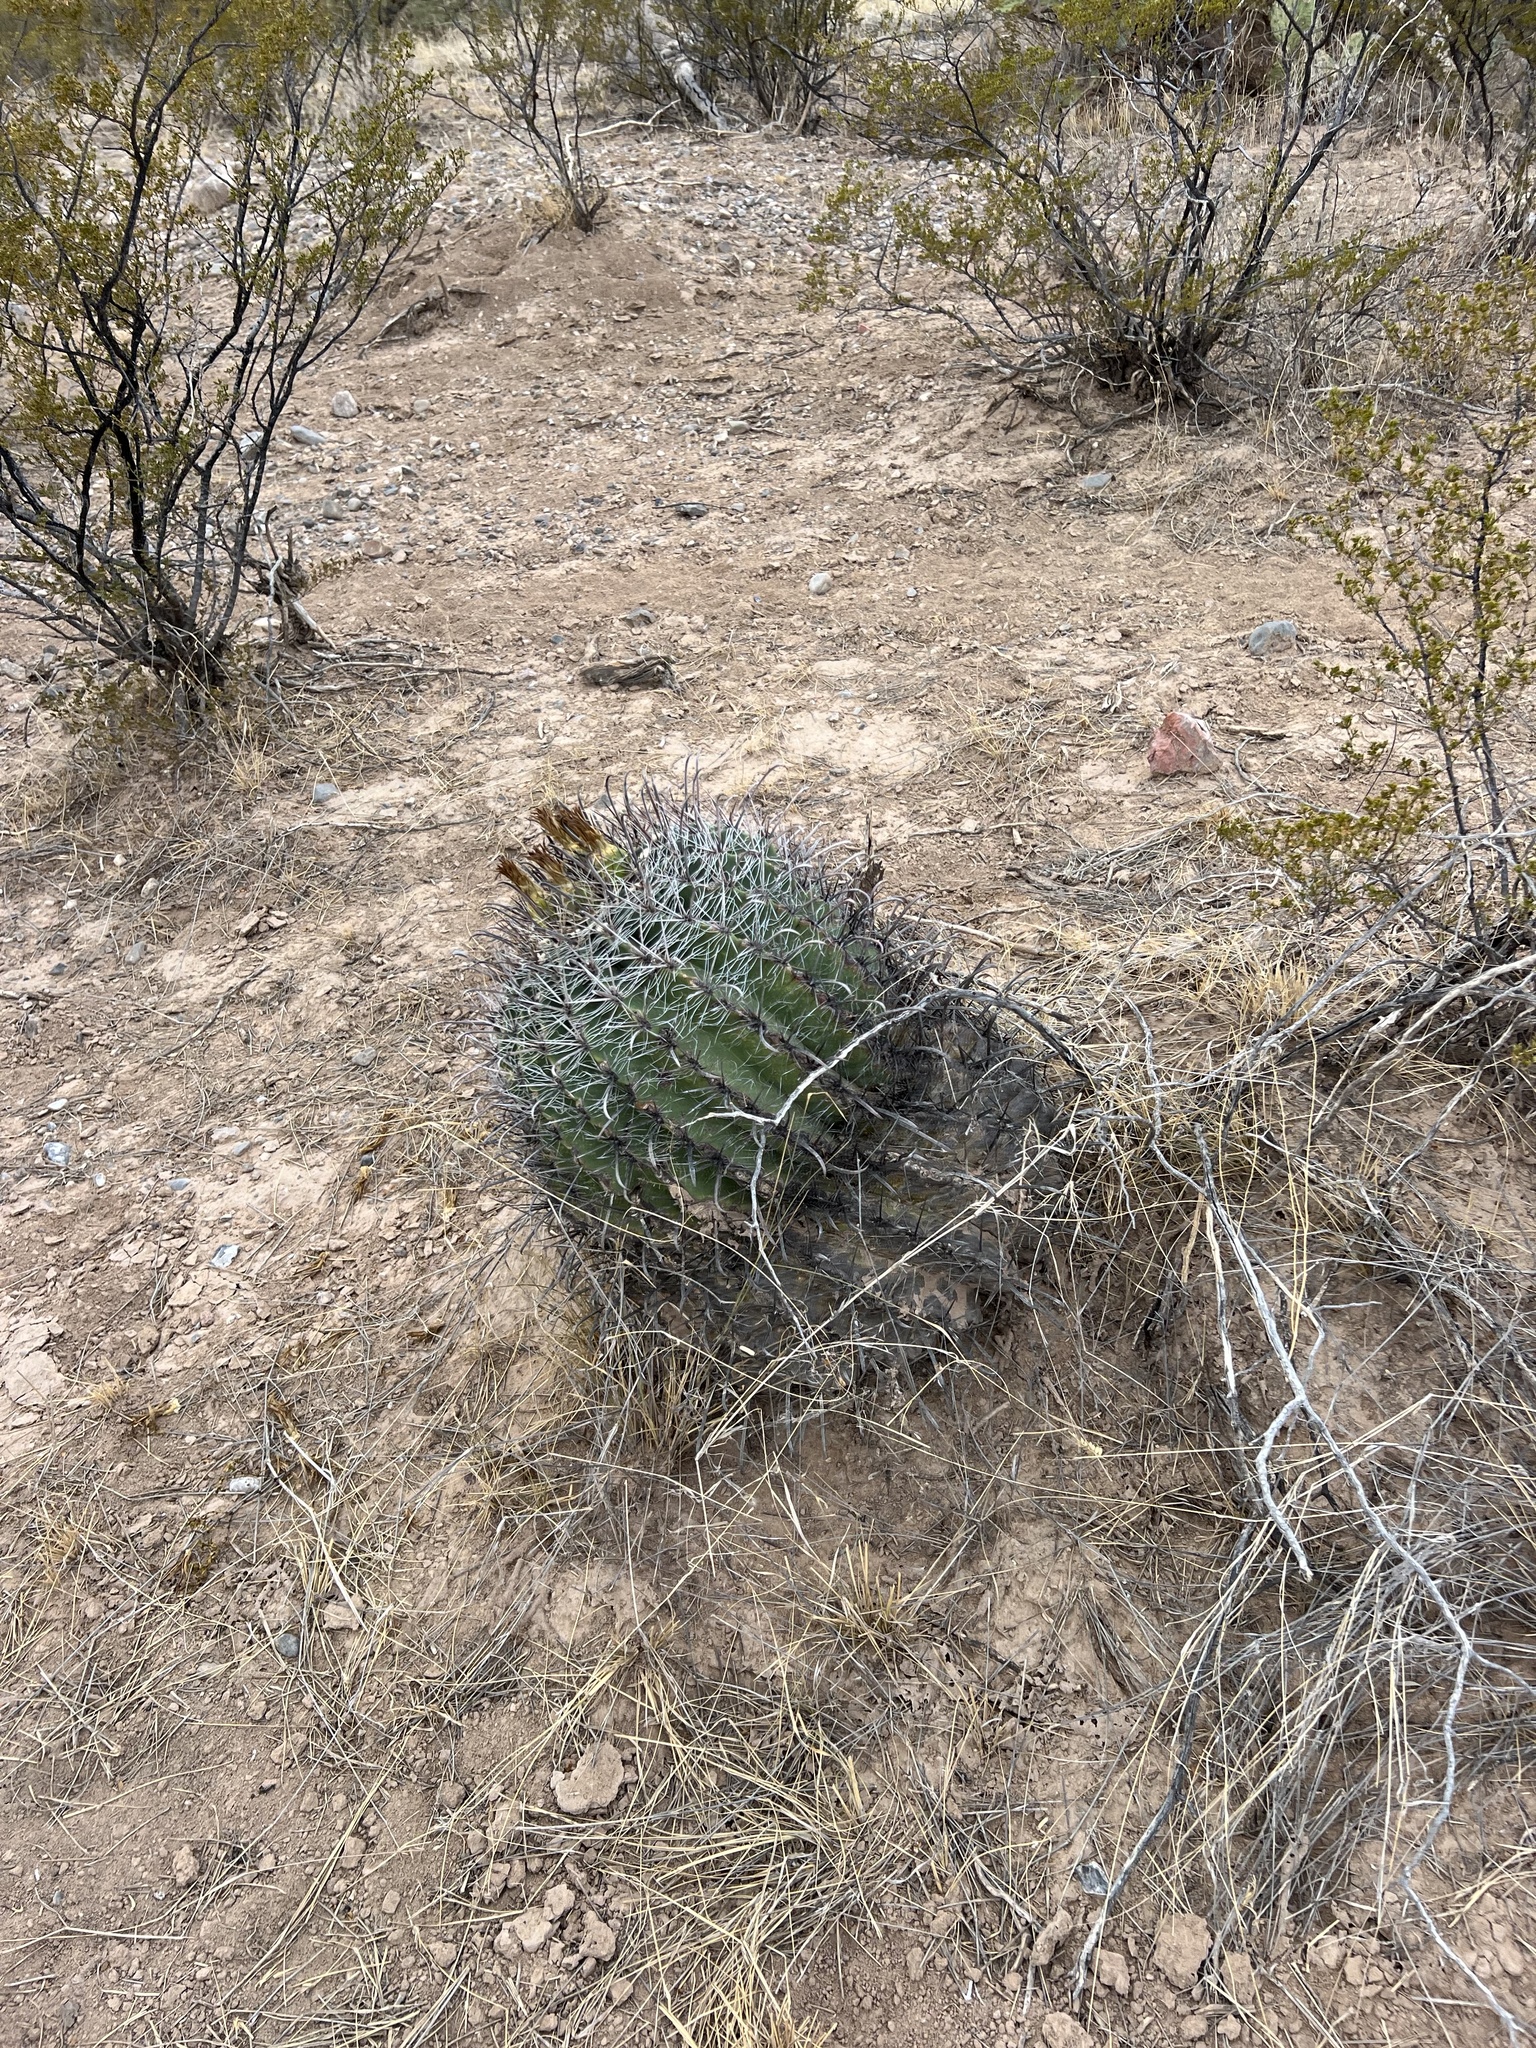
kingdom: Plantae
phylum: Tracheophyta
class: Magnoliopsida
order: Caryophyllales
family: Cactaceae
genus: Ferocactus
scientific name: Ferocactus wislizeni
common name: Candy barrel cactus
